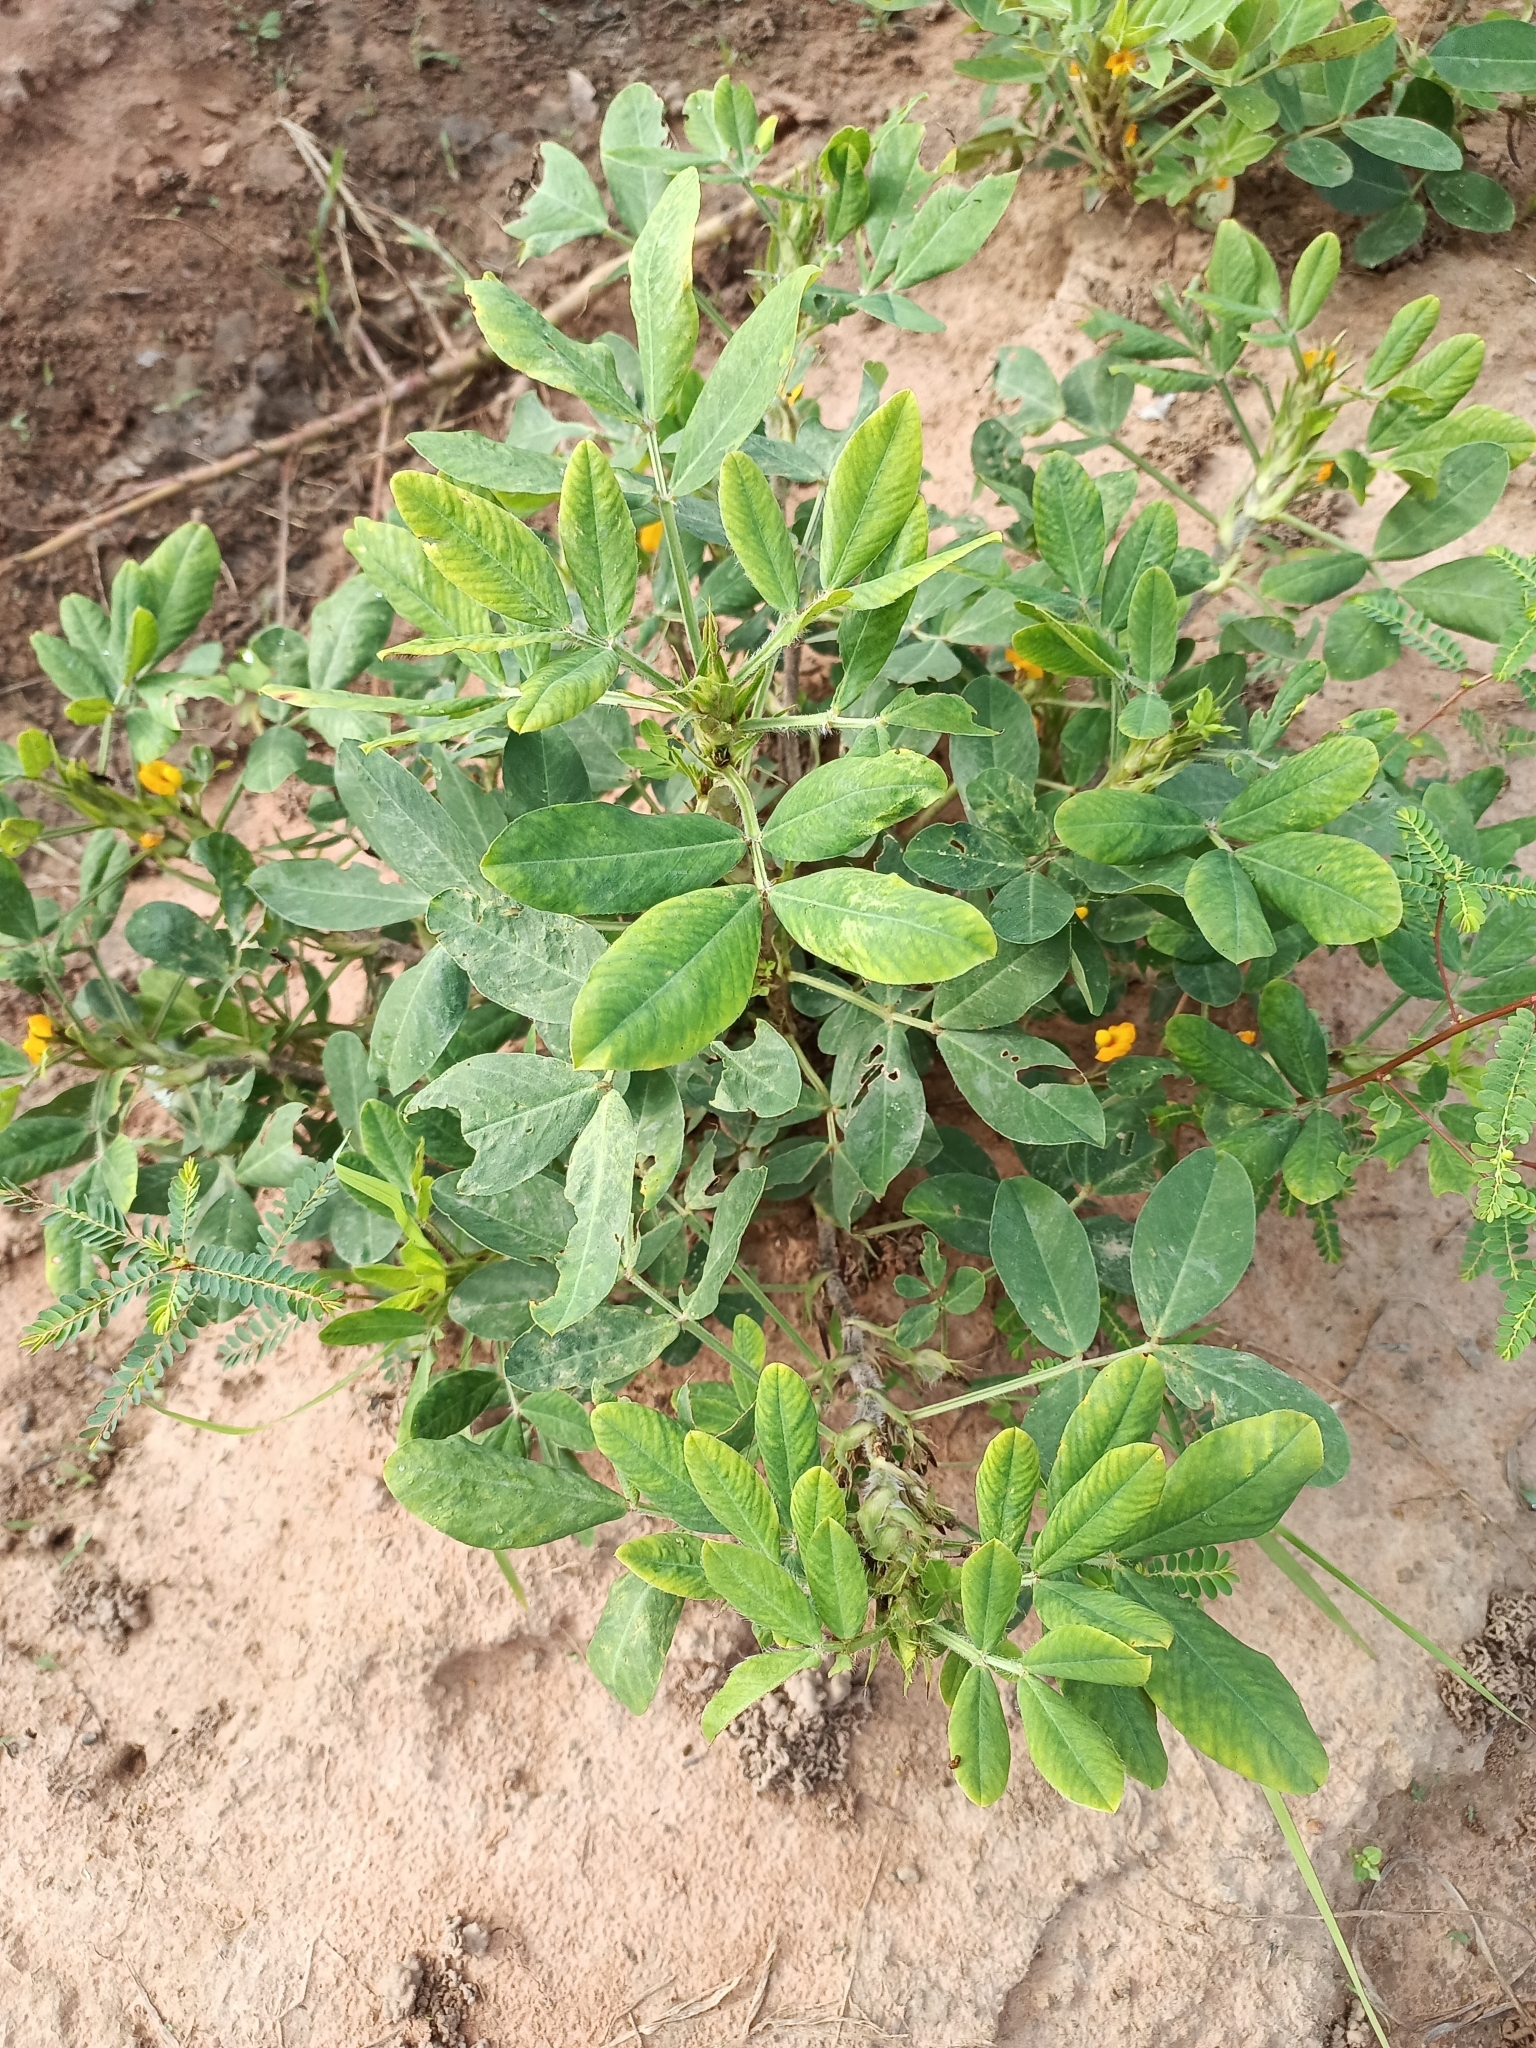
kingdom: Plantae
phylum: Tracheophyta
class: Magnoliopsida
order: Fabales
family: Fabaceae
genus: Arachis
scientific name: Arachis hypogaea
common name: Peanut
